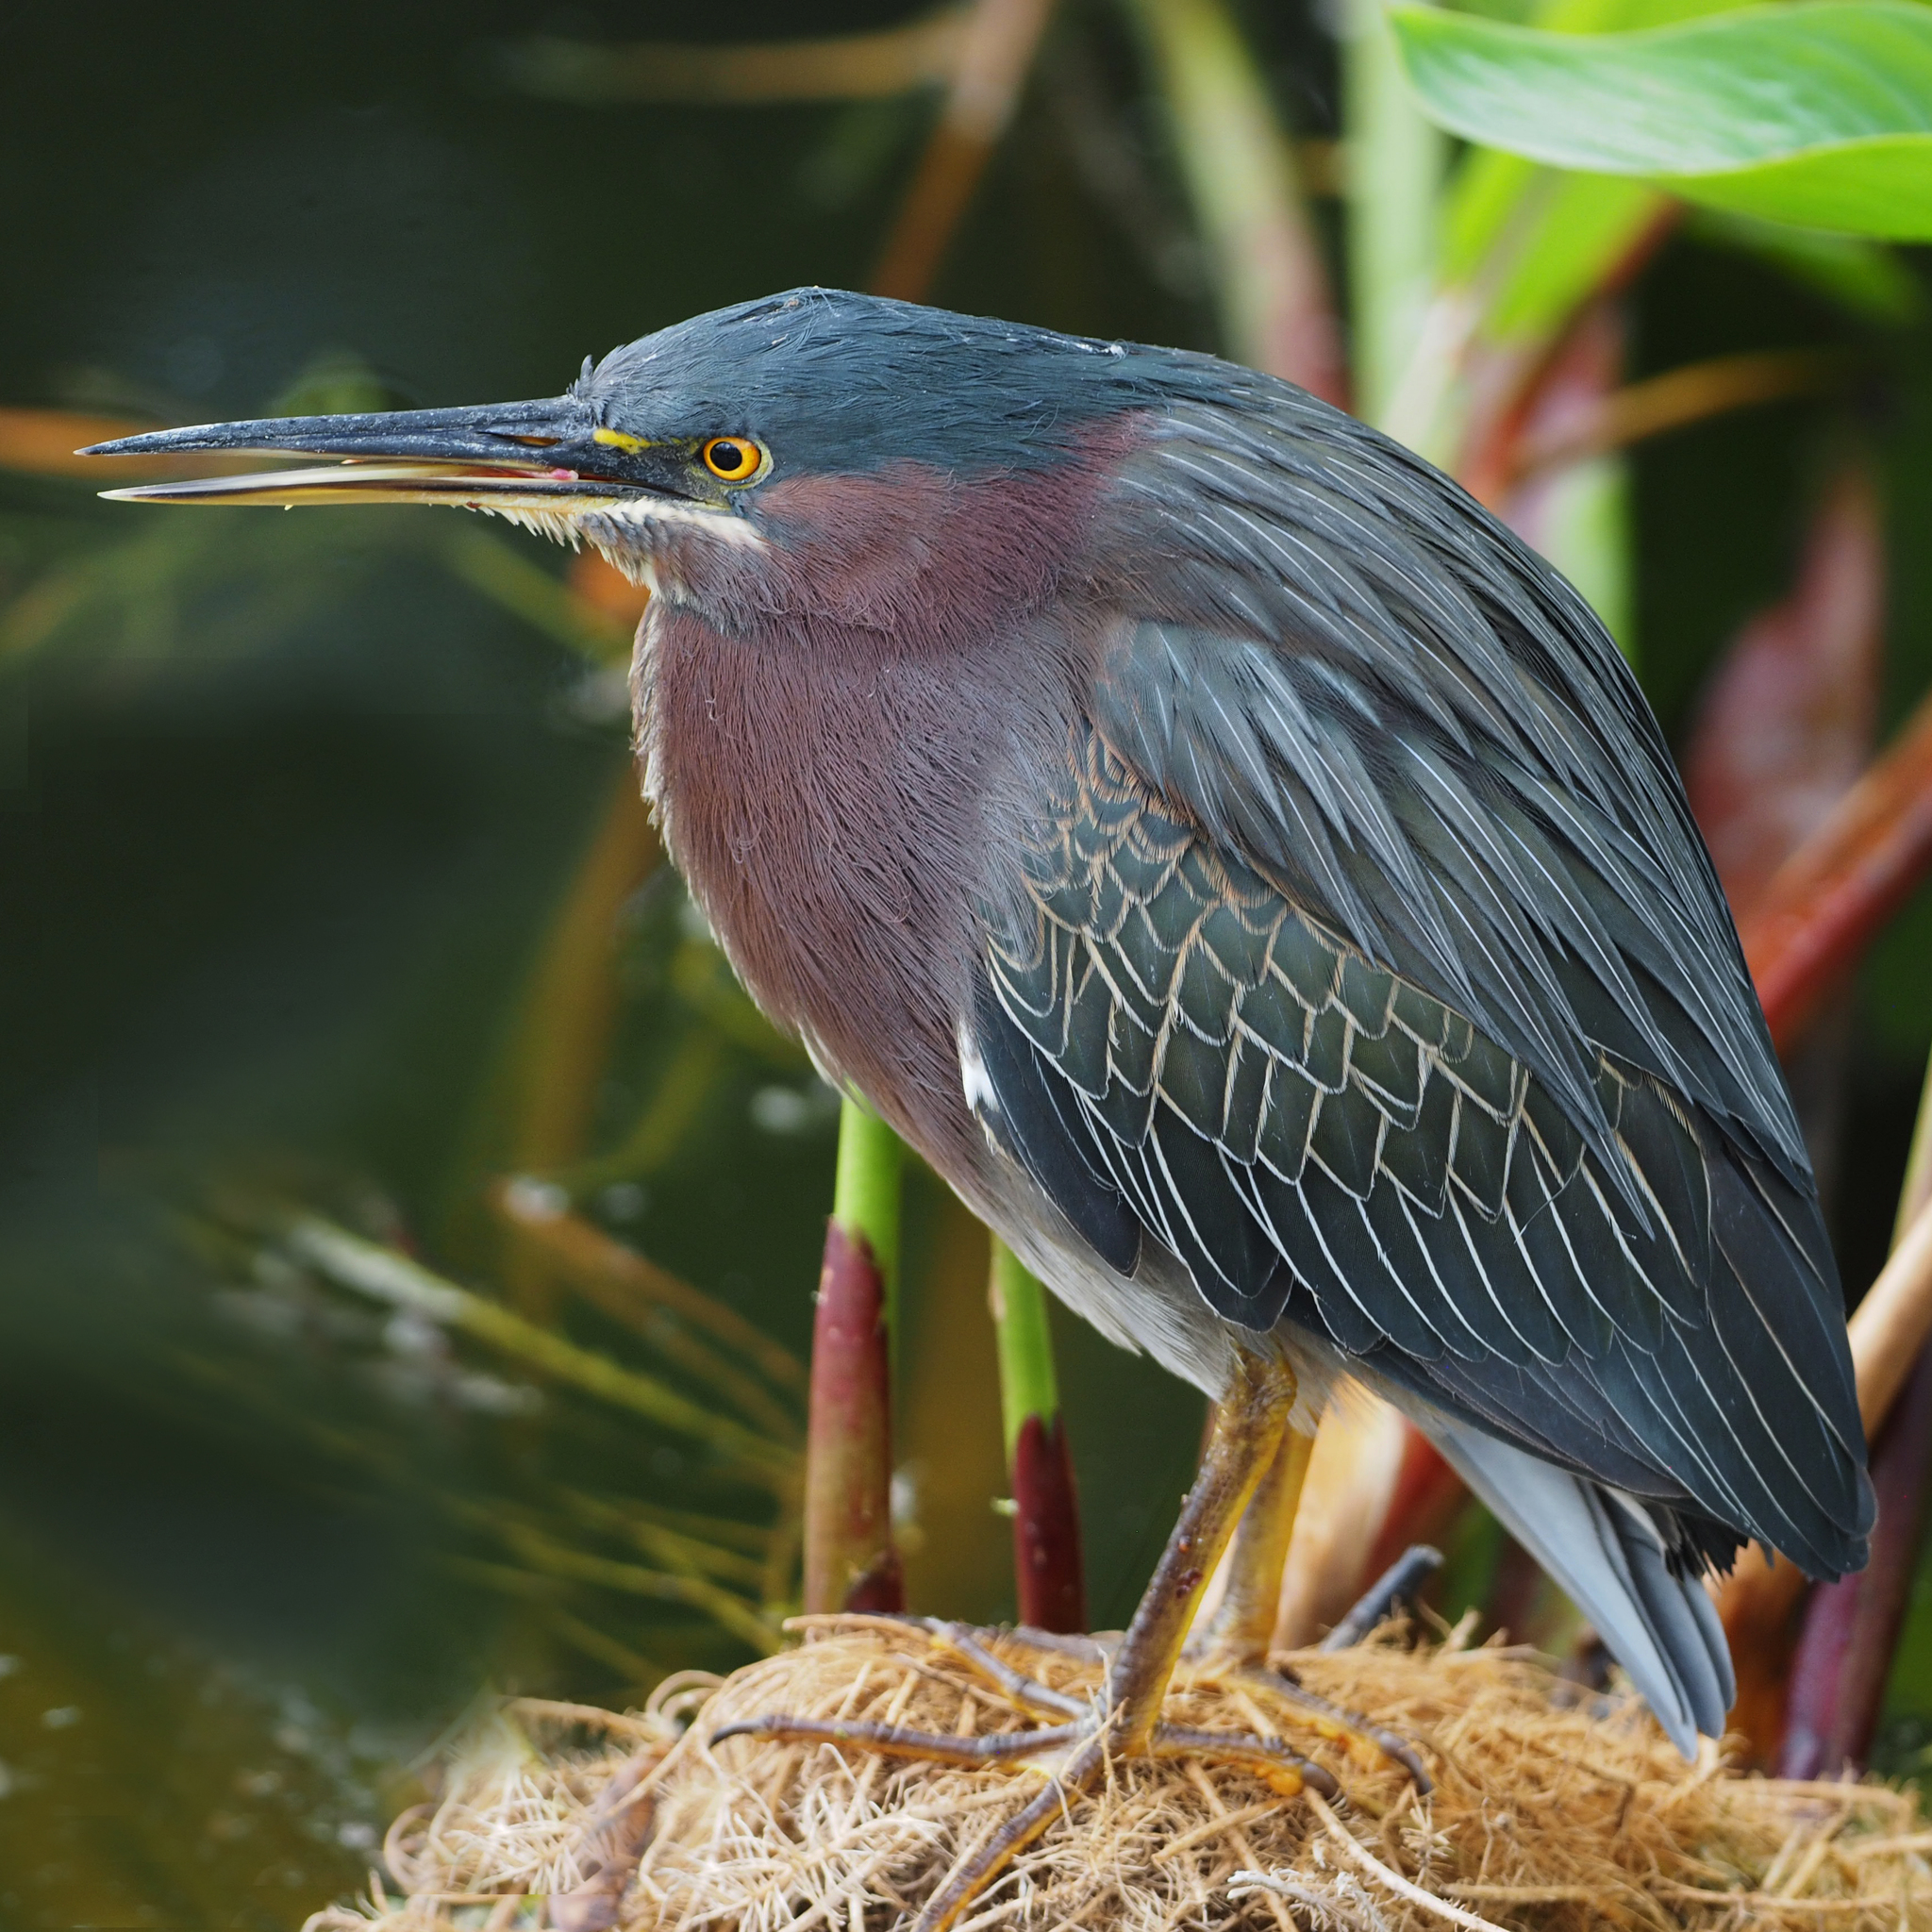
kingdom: Animalia
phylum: Chordata
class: Aves
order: Pelecaniformes
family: Ardeidae
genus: Butorides
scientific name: Butorides virescens
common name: Green heron
